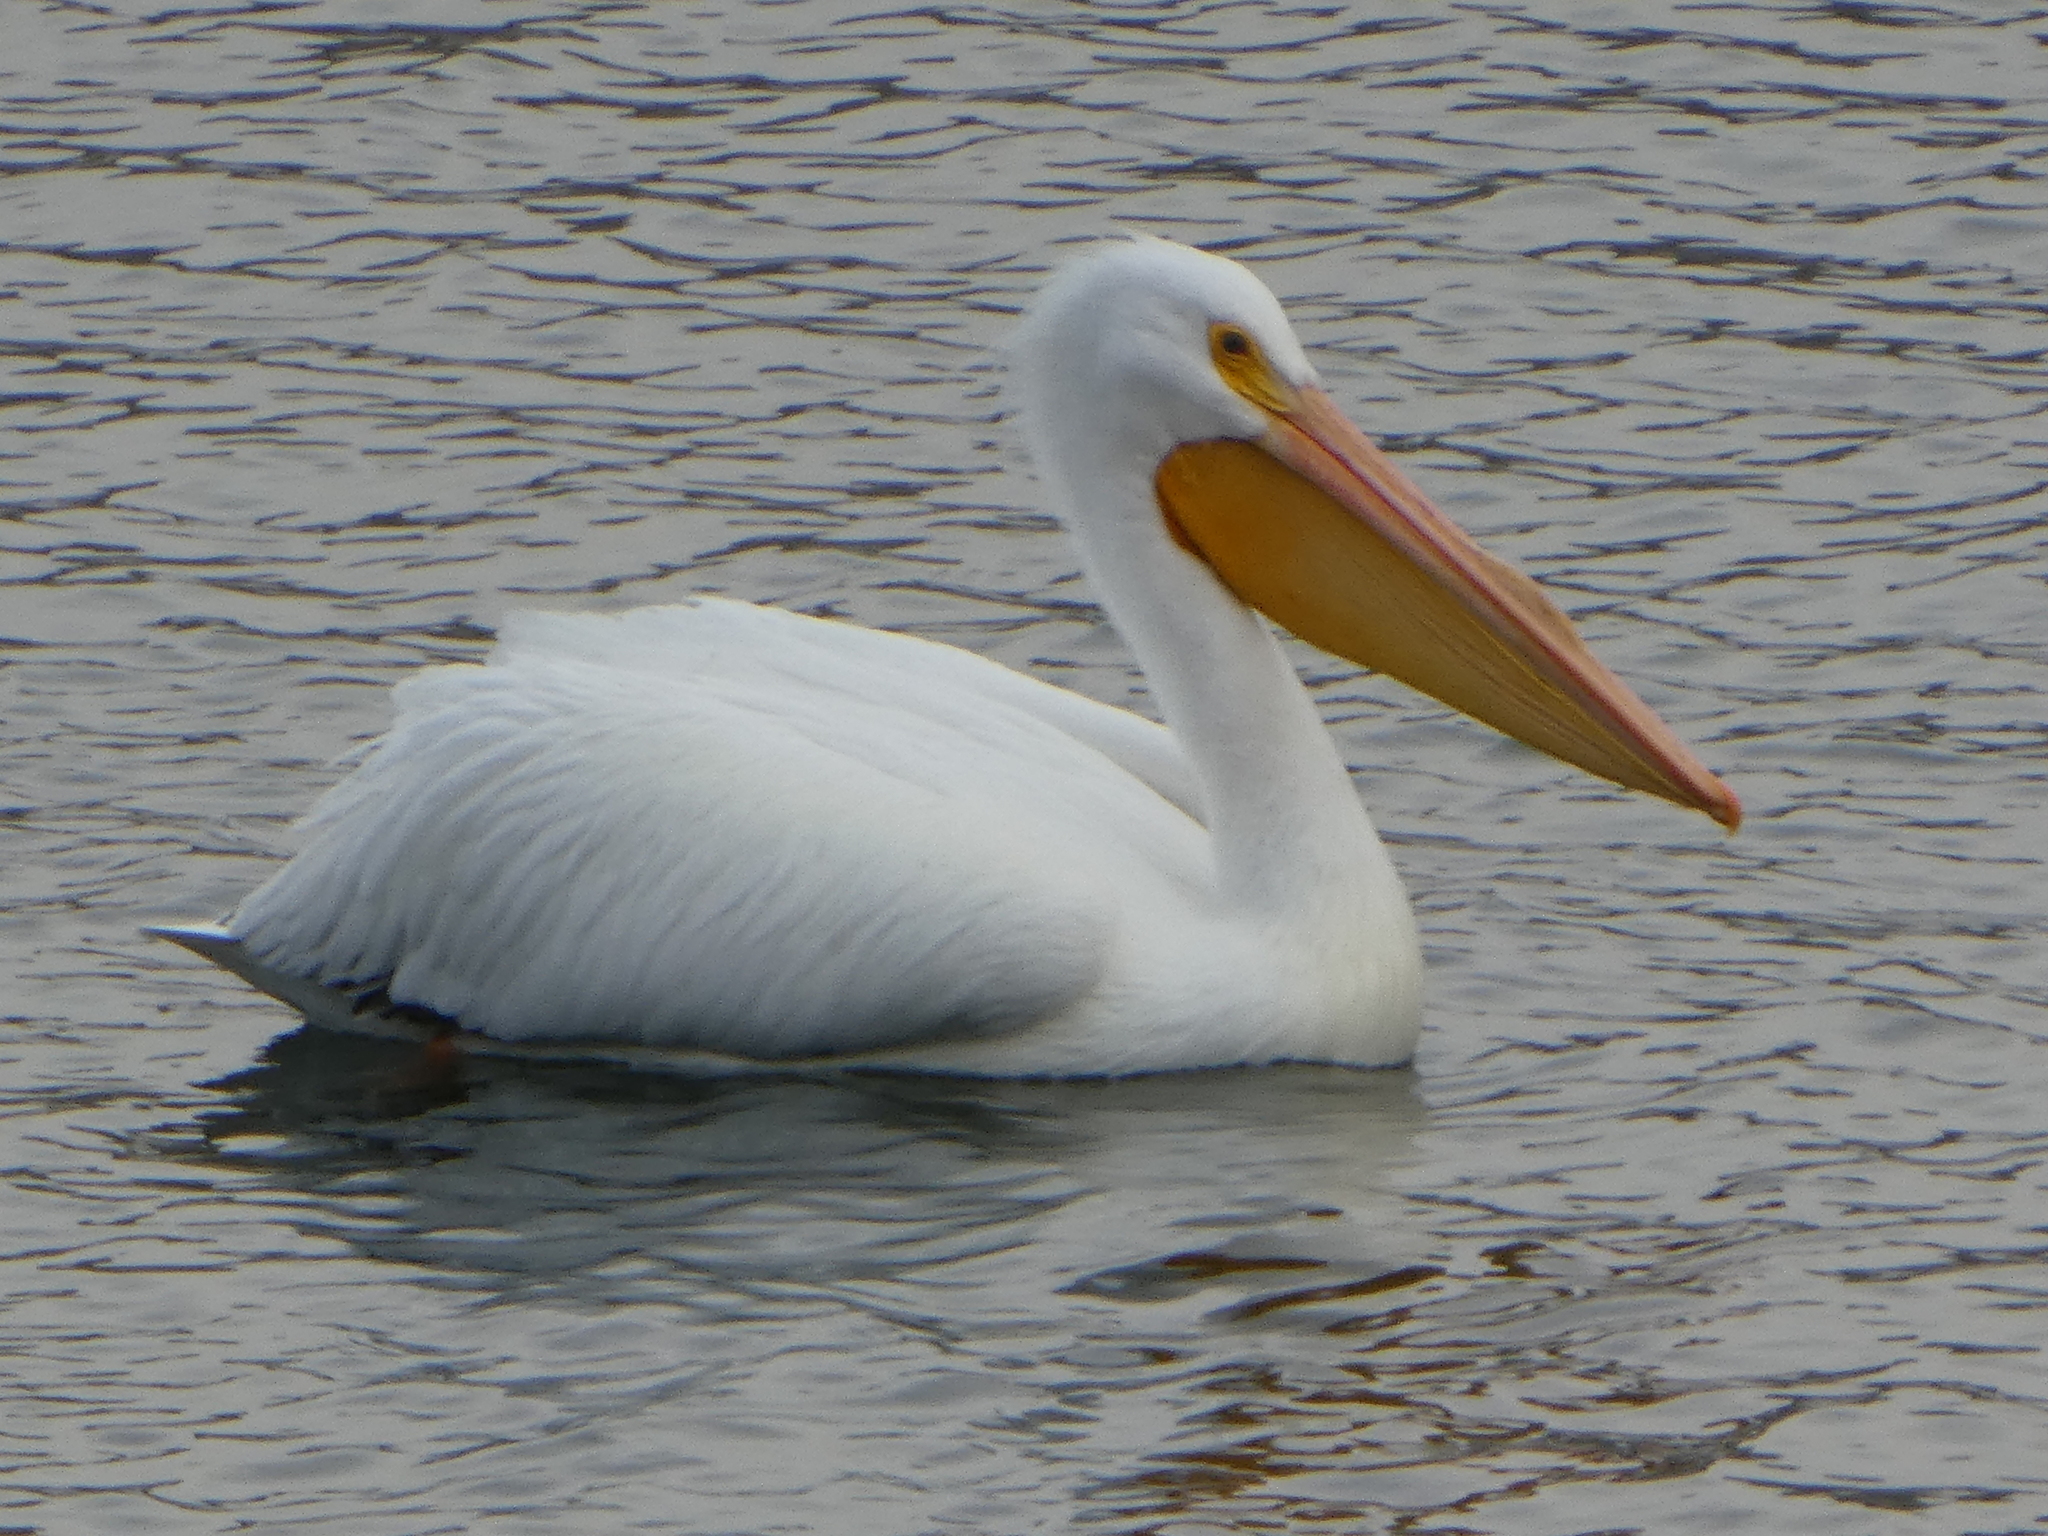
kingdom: Animalia
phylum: Chordata
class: Aves
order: Pelecaniformes
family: Pelecanidae
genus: Pelecanus
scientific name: Pelecanus erythrorhynchos
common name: American white pelican
